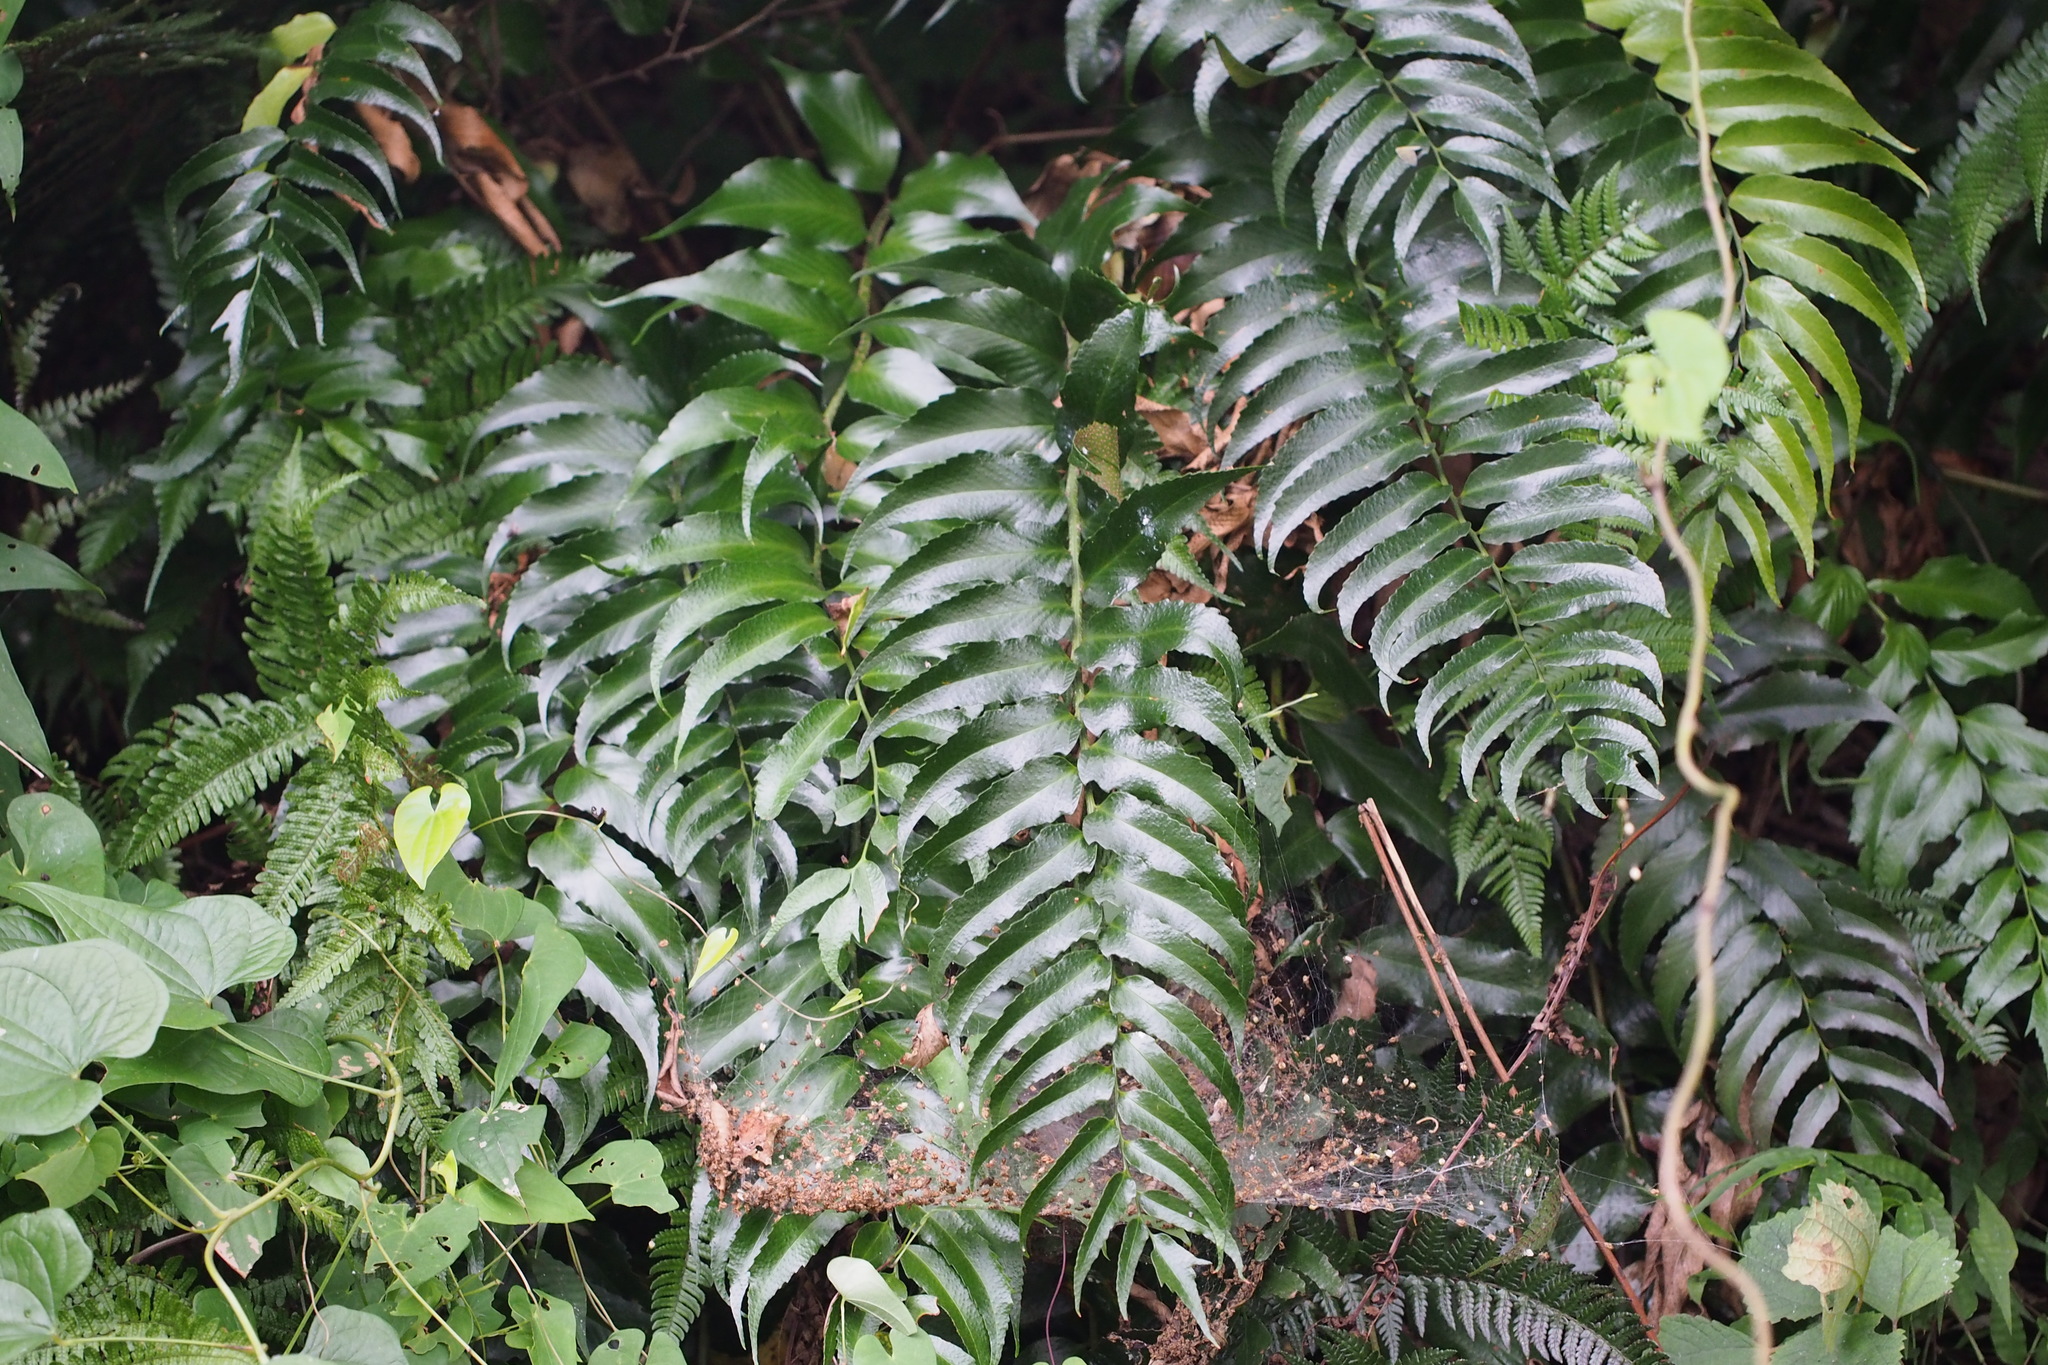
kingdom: Plantae
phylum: Tracheophyta
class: Polypodiopsida
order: Polypodiales
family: Dryopteridaceae
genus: Cyrtomium
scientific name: Cyrtomium clivicola
